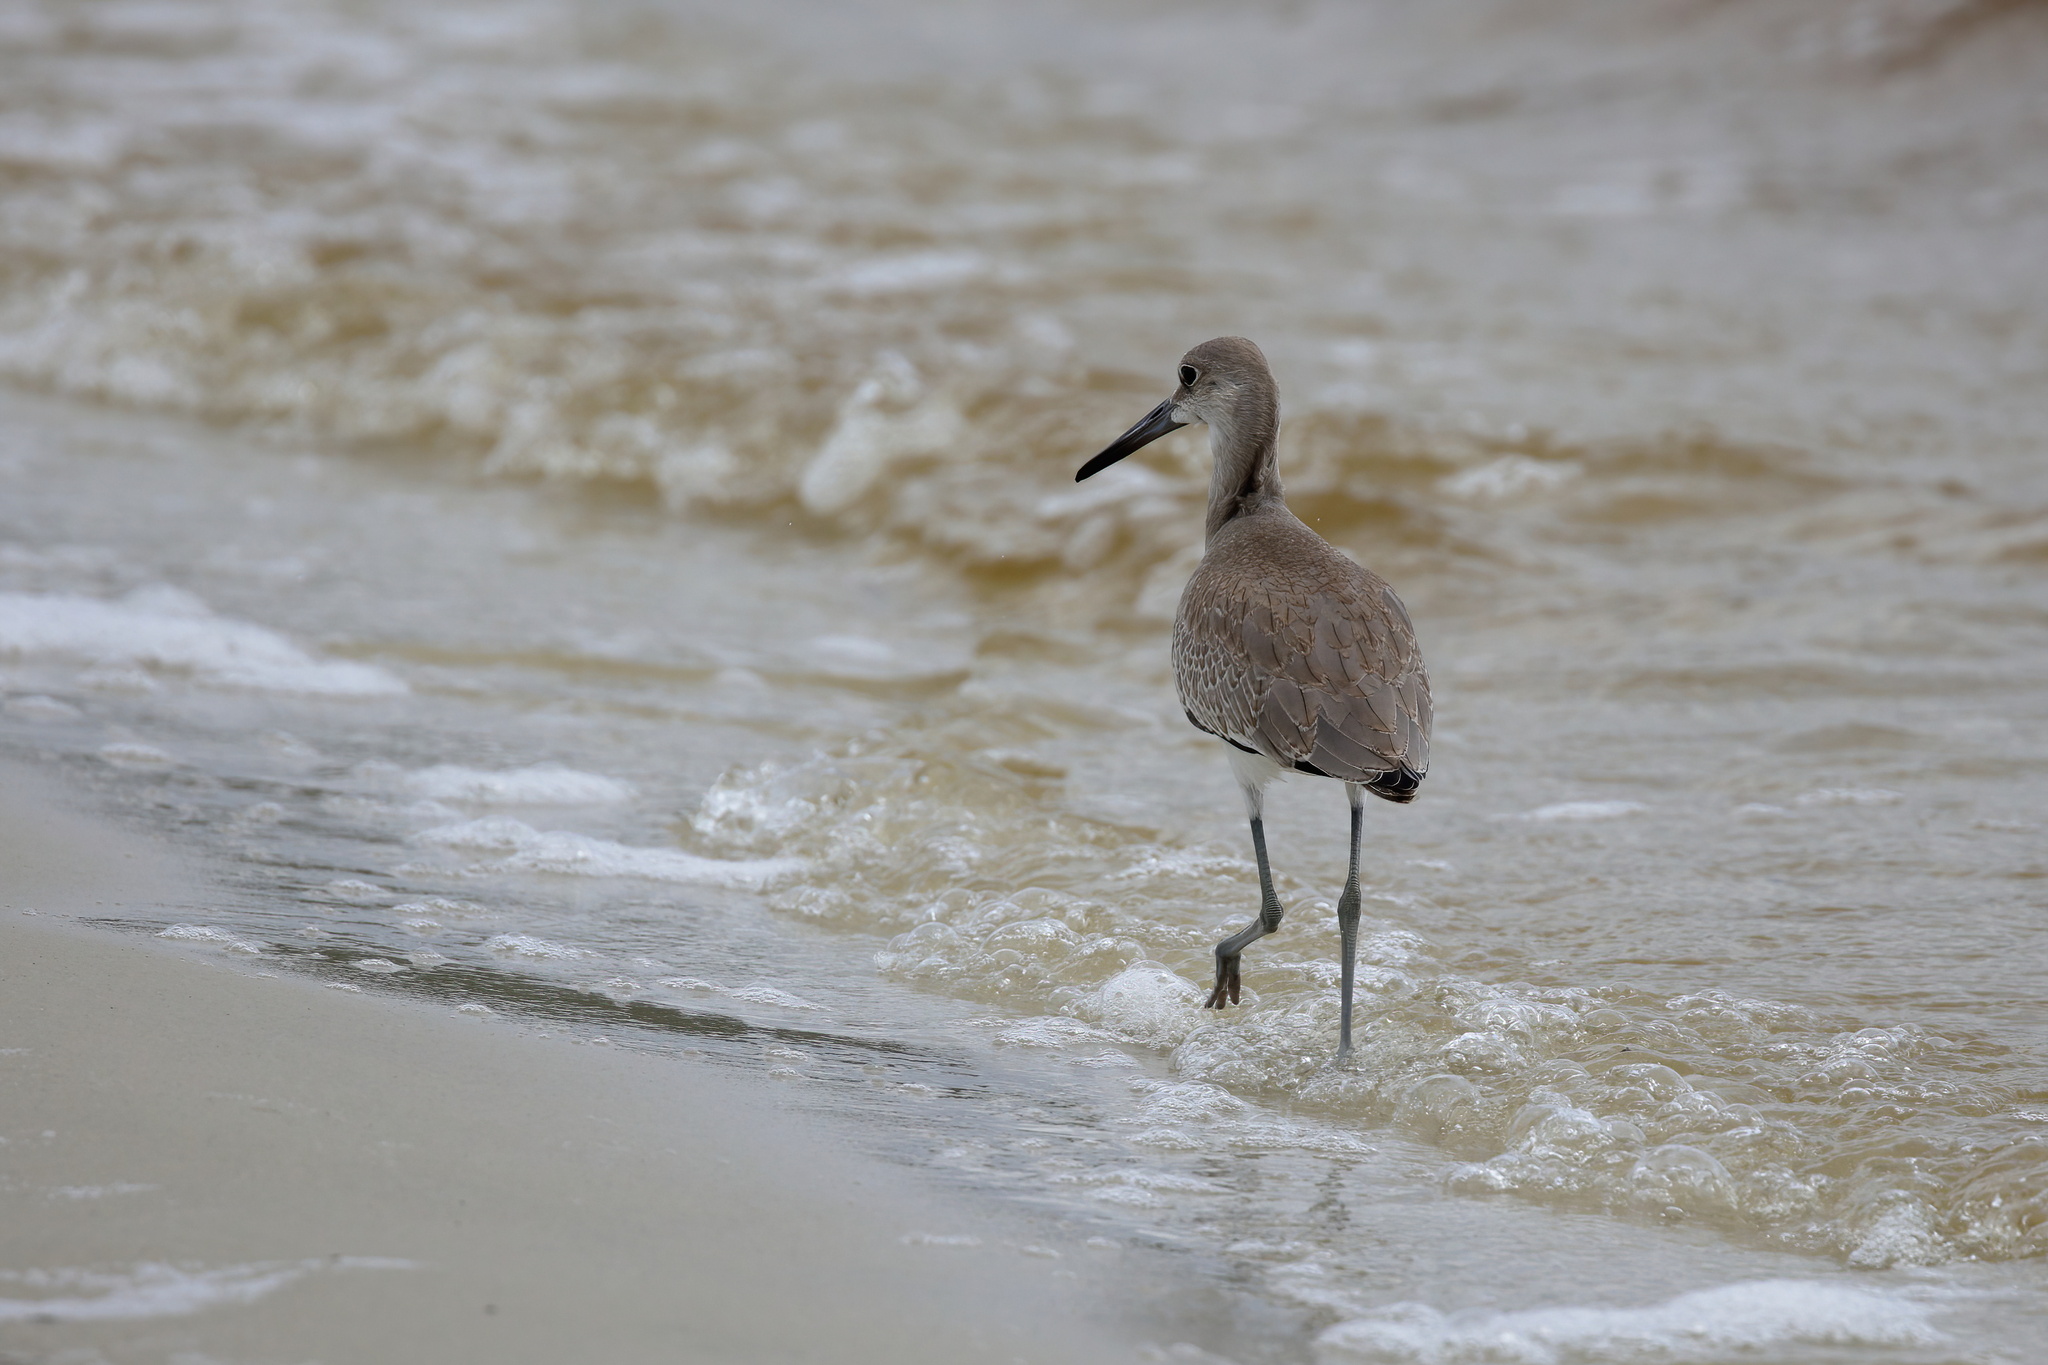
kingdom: Animalia
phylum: Chordata
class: Aves
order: Charadriiformes
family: Scolopacidae
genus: Tringa
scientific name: Tringa semipalmata
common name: Willet
